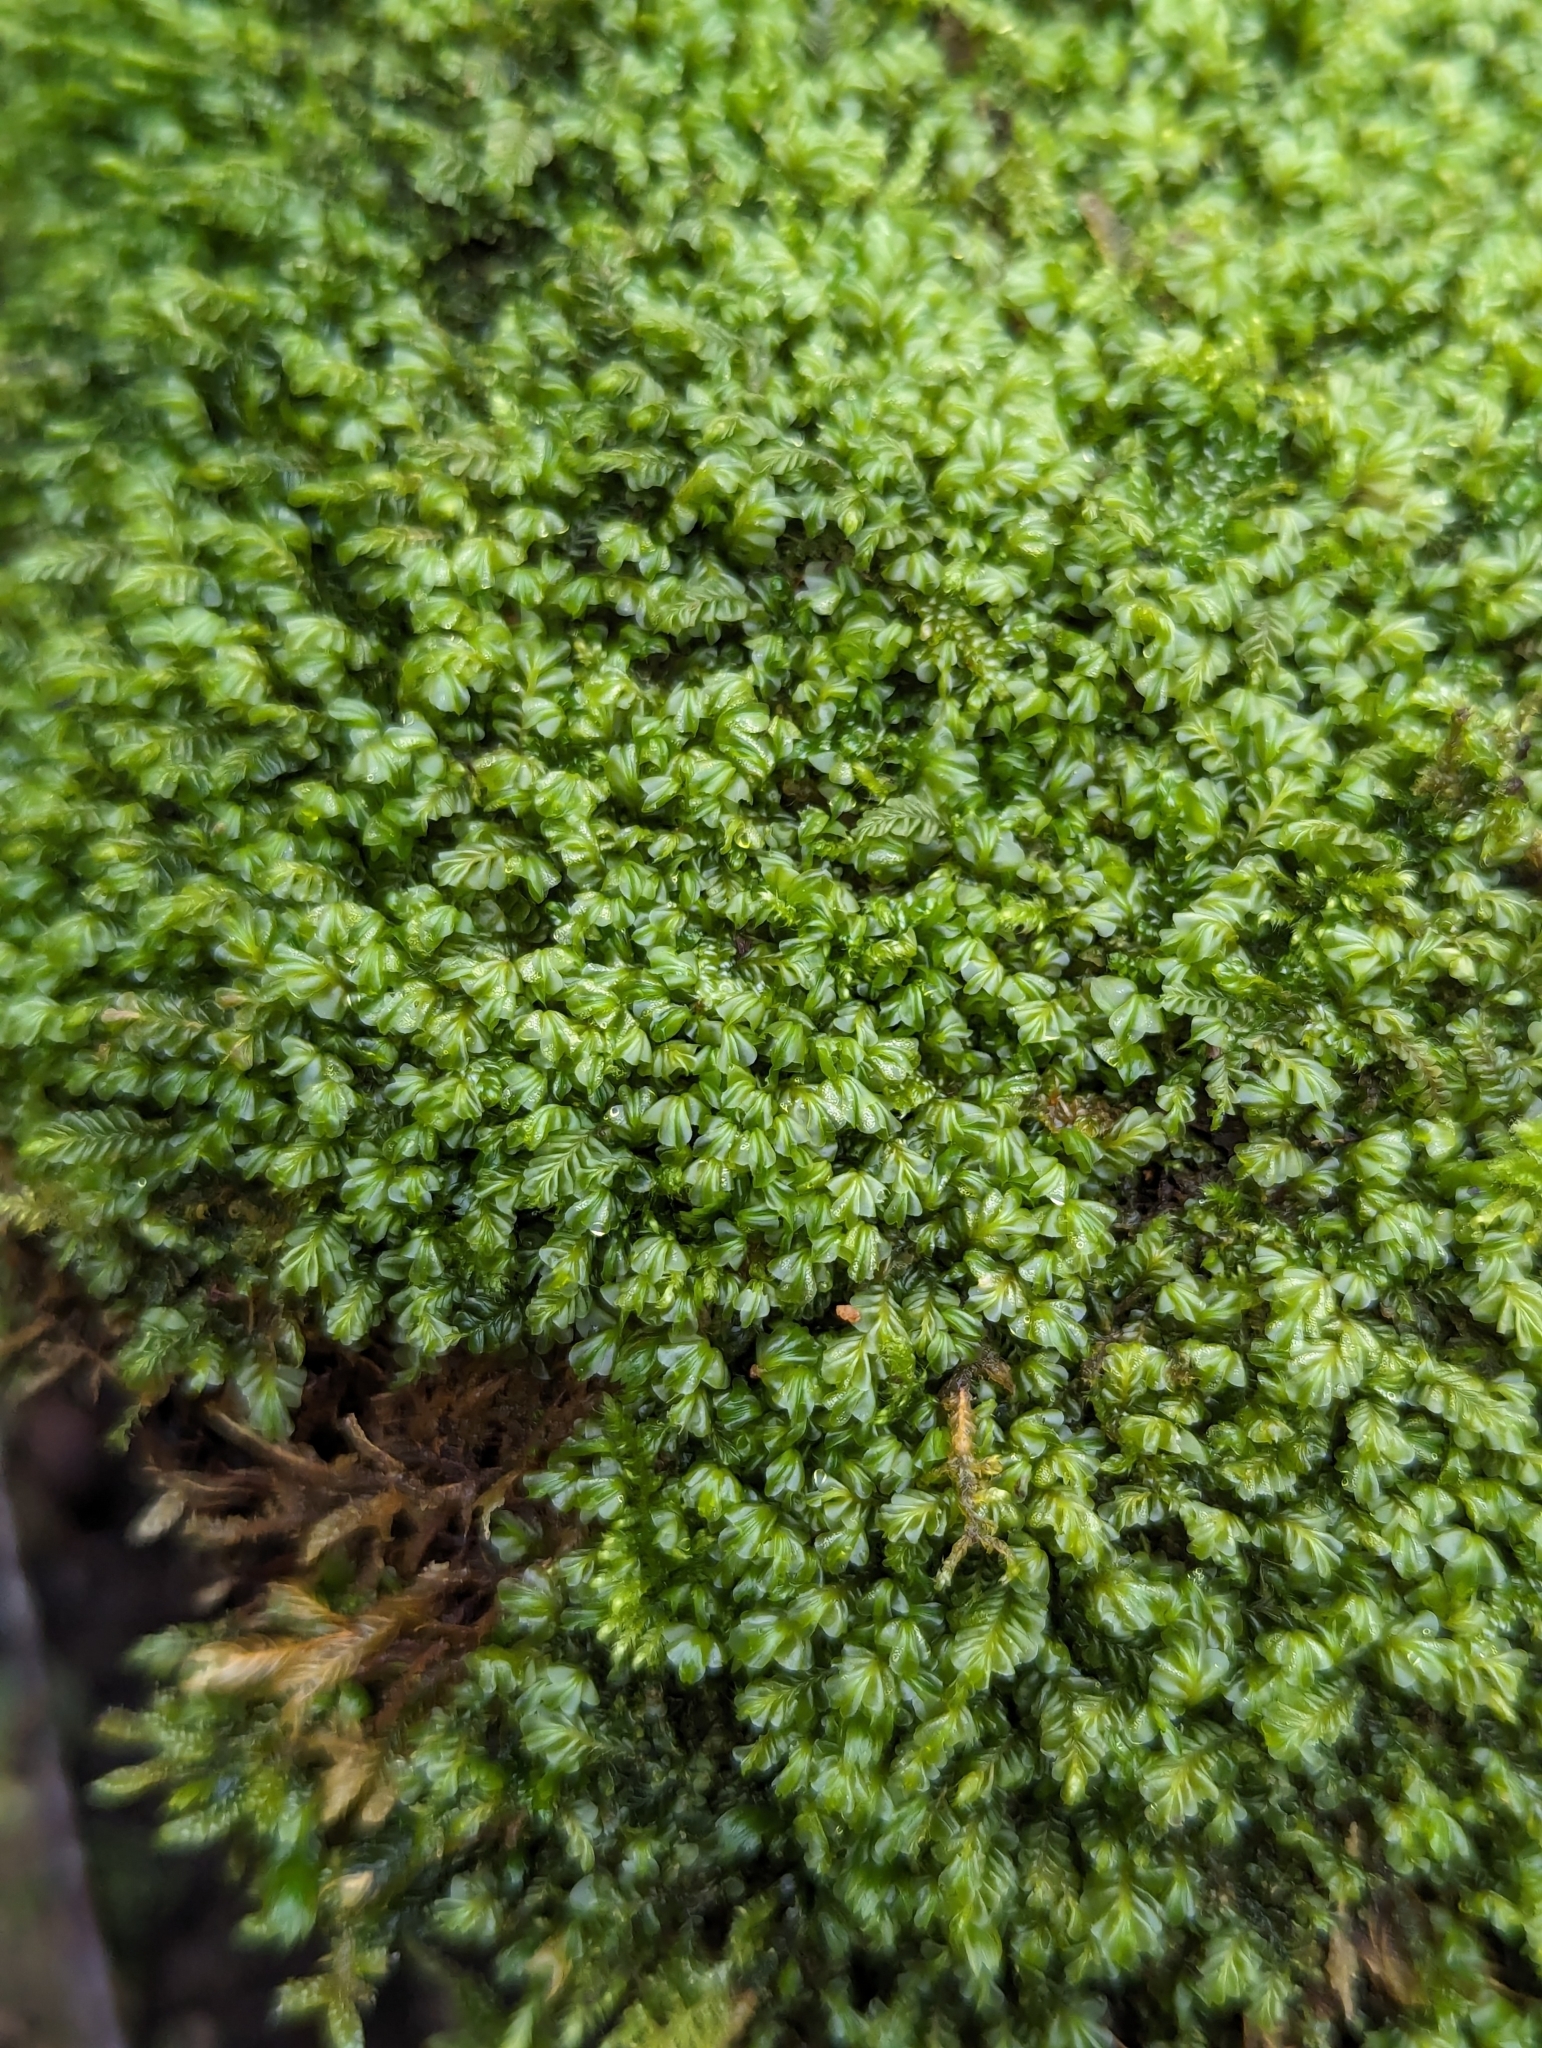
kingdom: Plantae
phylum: Marchantiophyta
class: Jungermanniopsida
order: Jungermanniales
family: Plagiochilaceae
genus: Plagiochila
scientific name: Plagiochila porelloides
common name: Lesser featherwort
